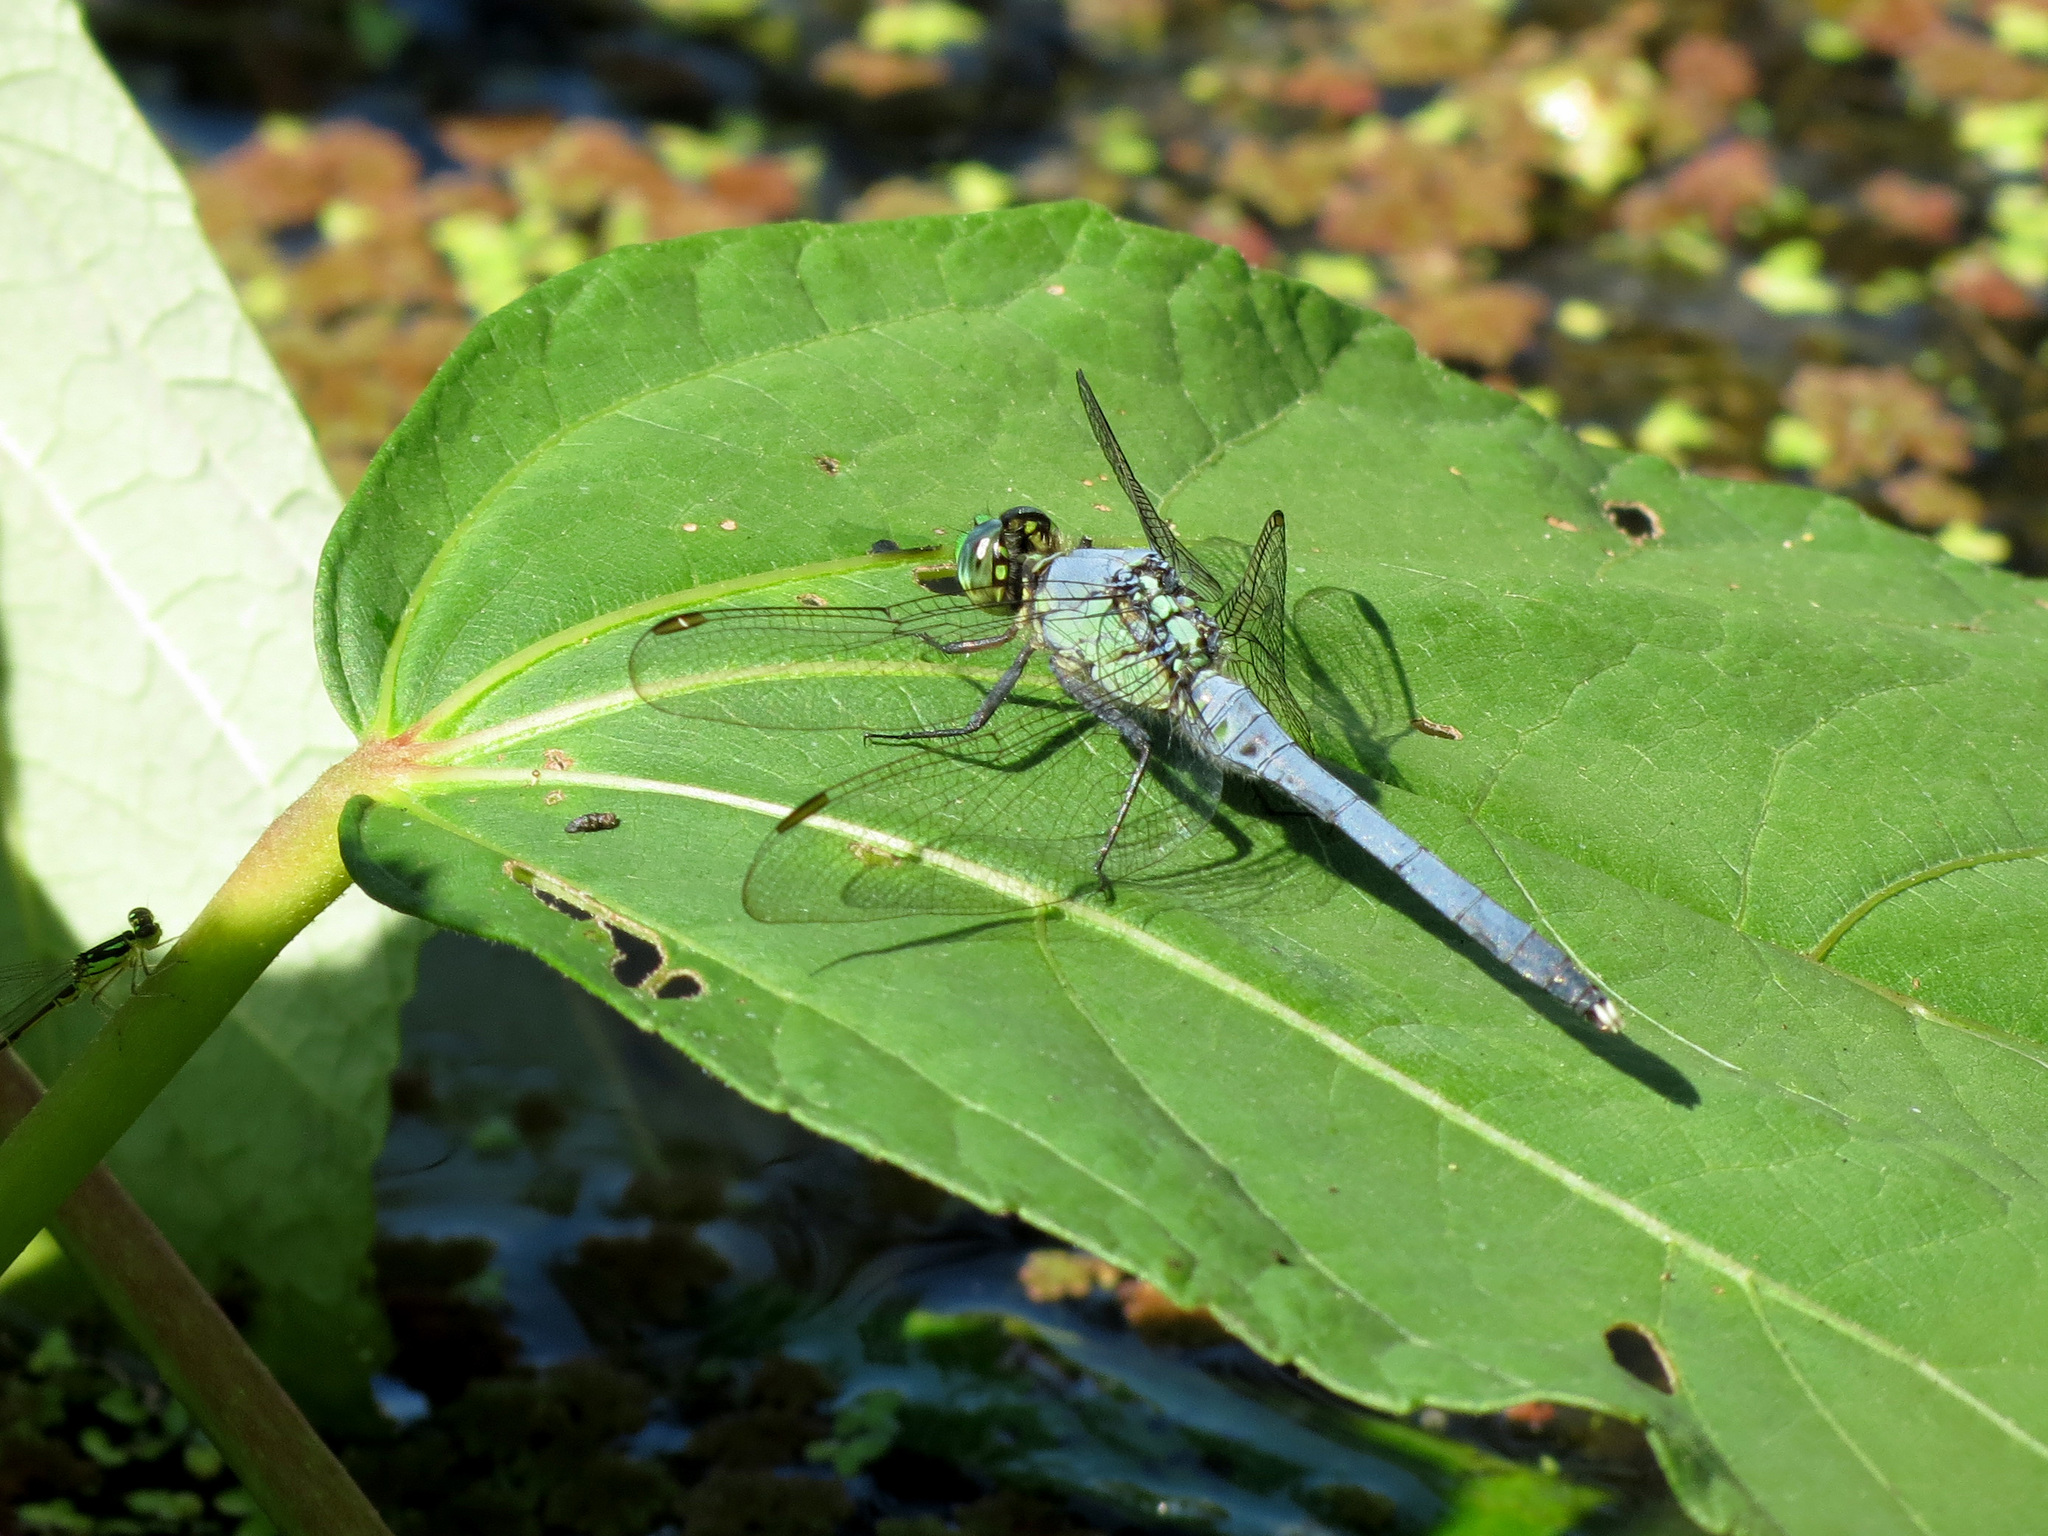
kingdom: Animalia
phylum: Arthropoda
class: Insecta
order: Odonata
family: Libellulidae
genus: Erythemis
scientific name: Erythemis simplicicollis
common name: Eastern pondhawk
